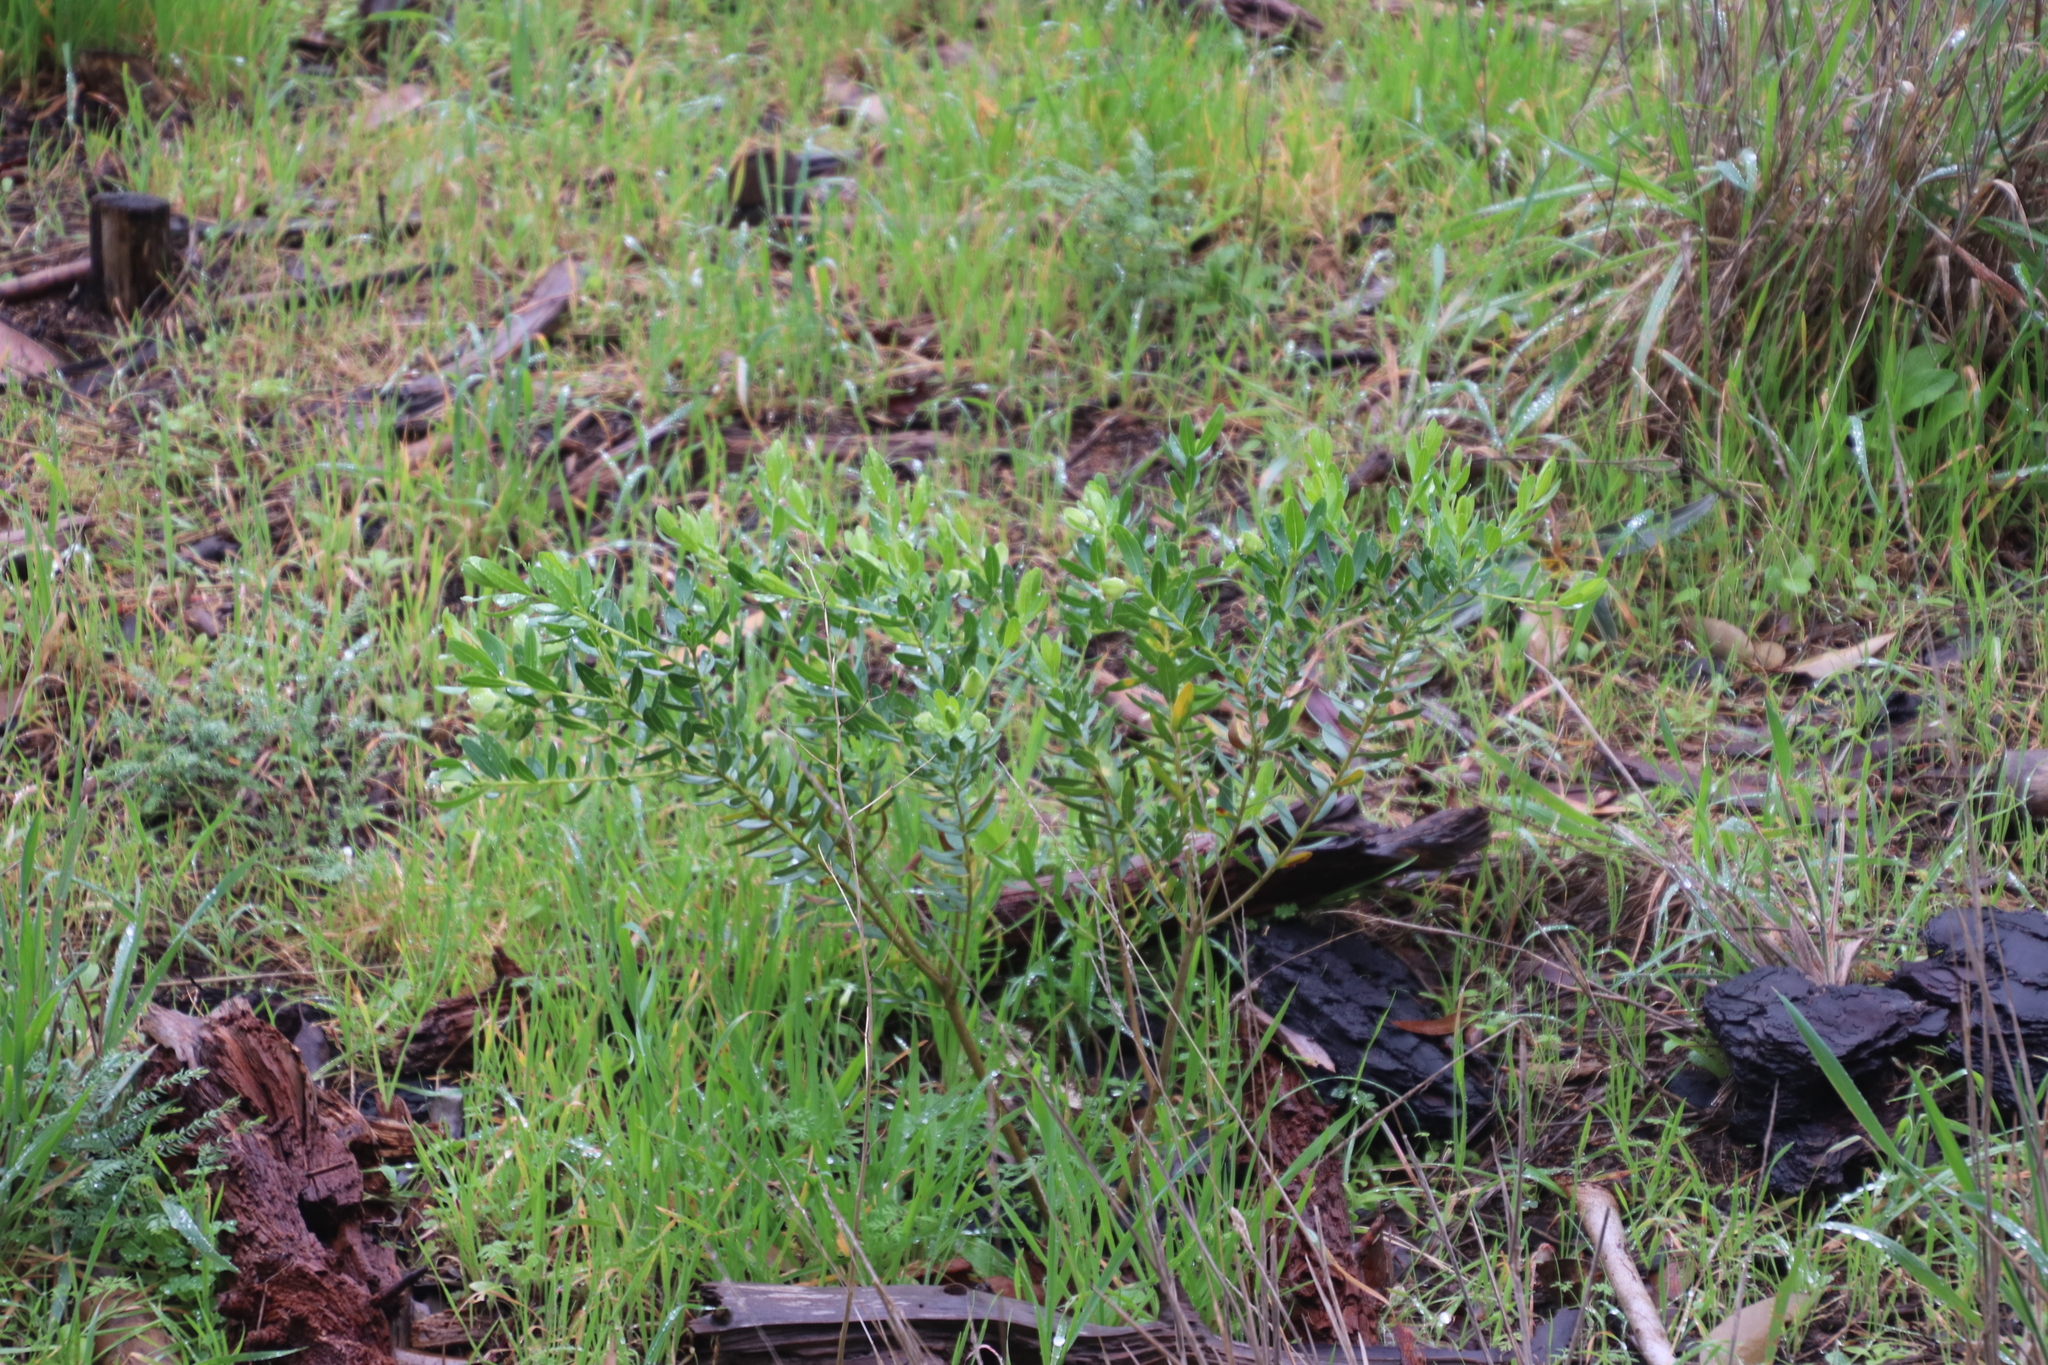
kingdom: Plantae
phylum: Tracheophyta
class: Magnoliopsida
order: Fabales
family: Polygalaceae
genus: Polygala
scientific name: Polygala myrtifolia
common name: Myrtle-leaf milkwort
